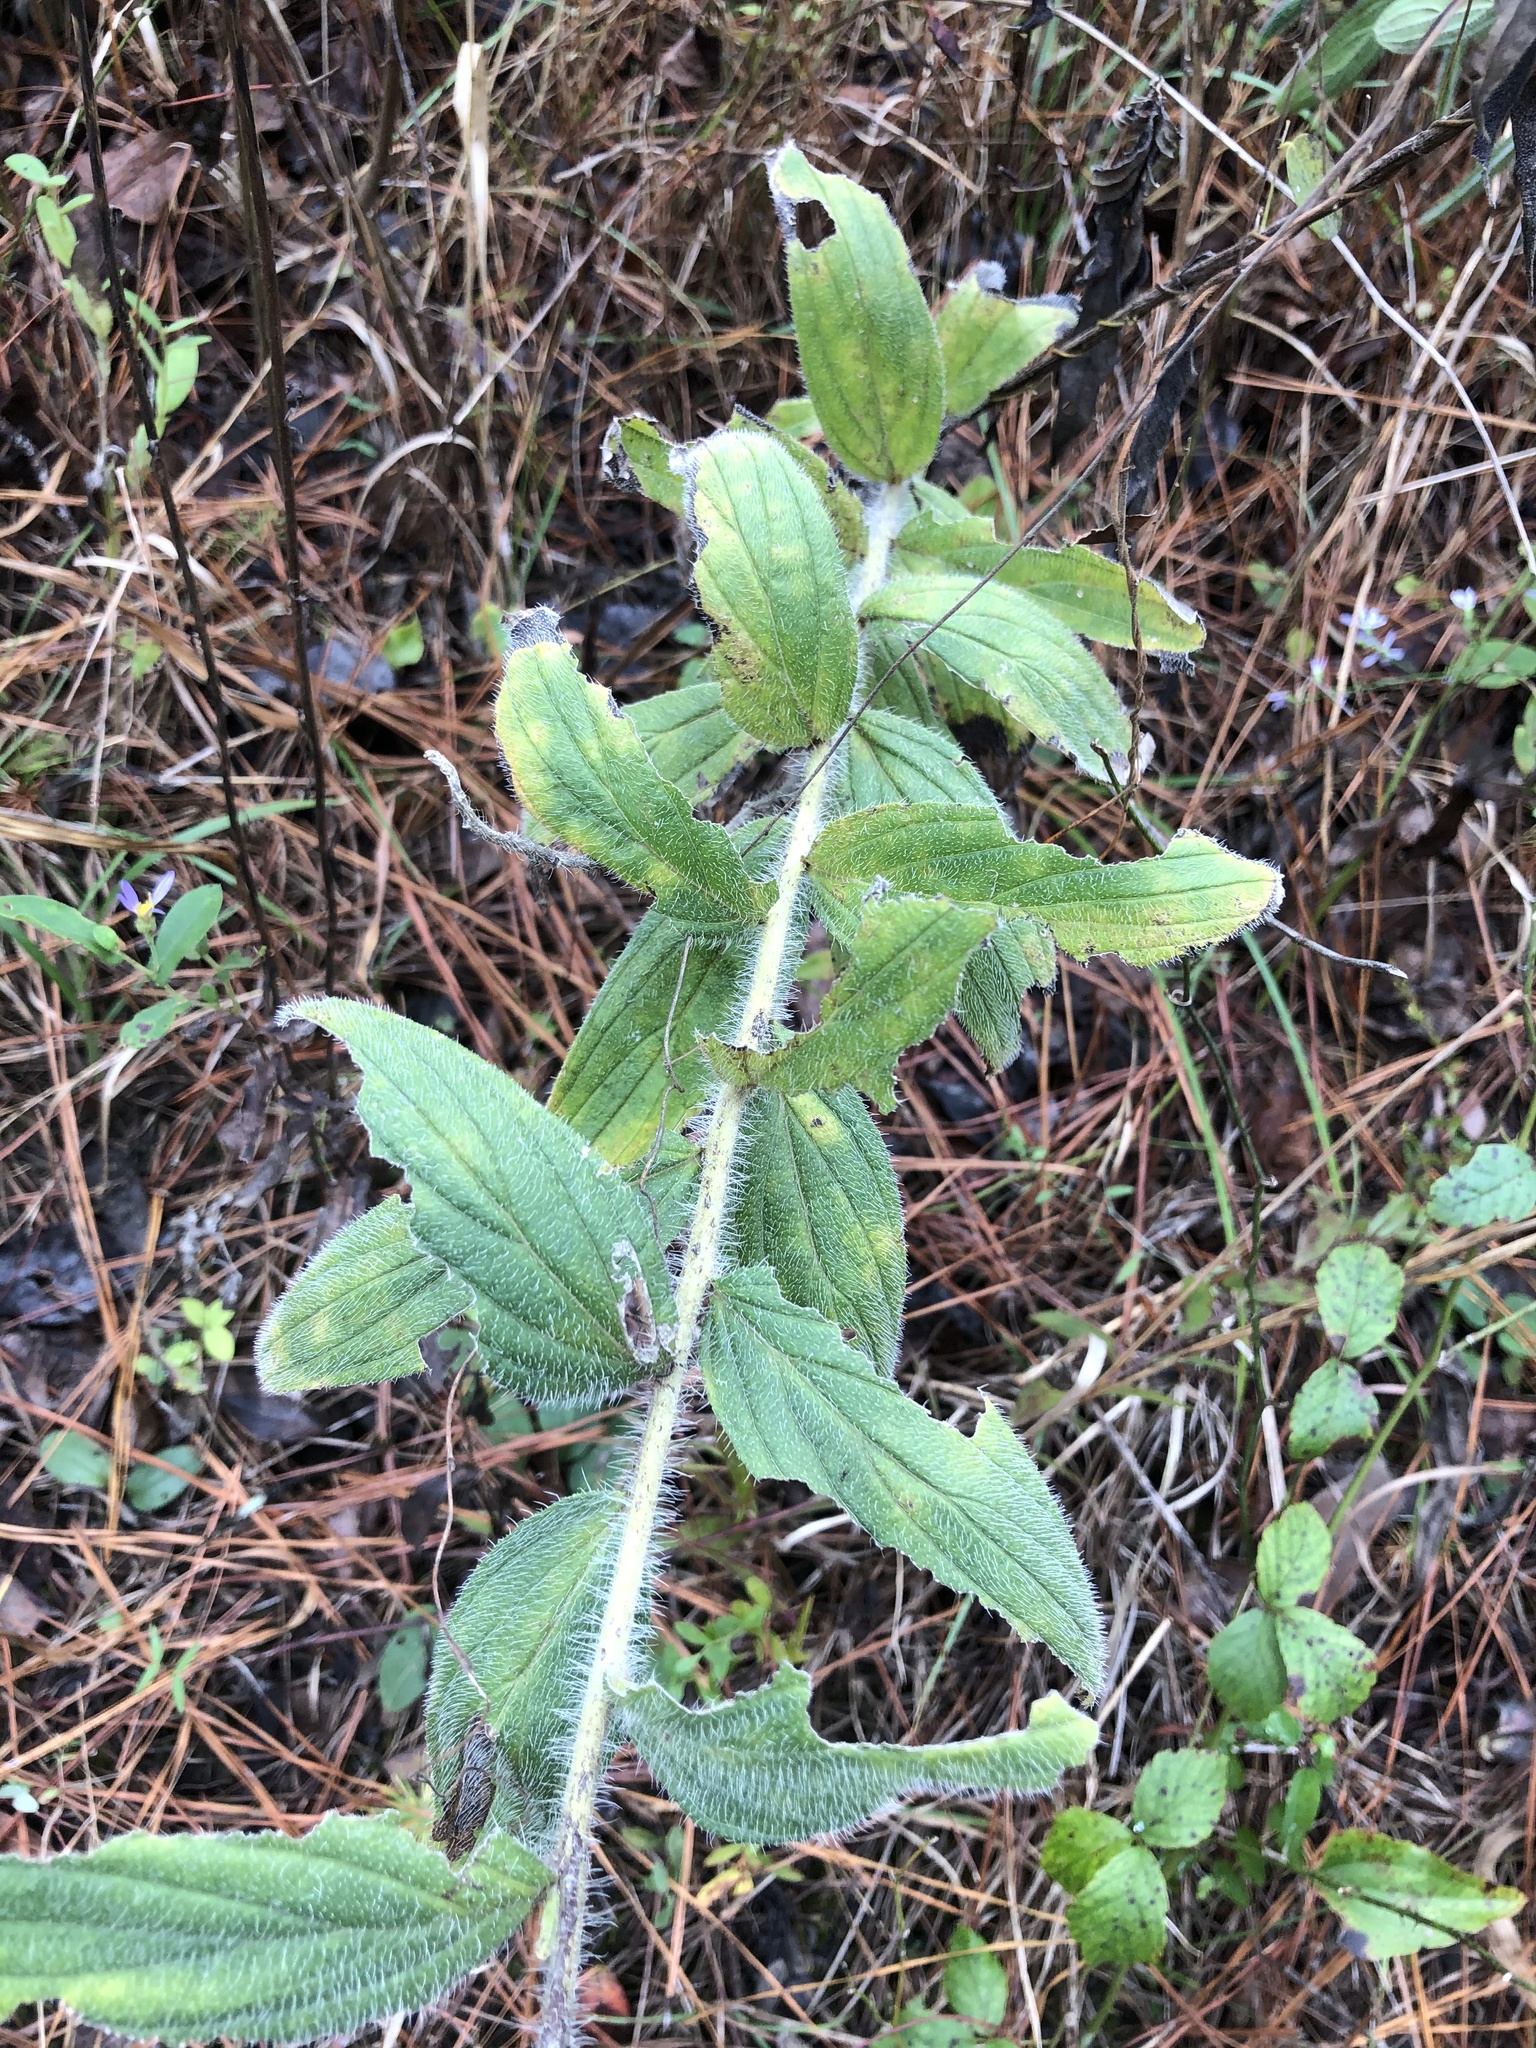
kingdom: Plantae
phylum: Tracheophyta
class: Magnoliopsida
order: Boraginales
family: Boraginaceae
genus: Lithospermum
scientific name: Lithospermum caroliniense
